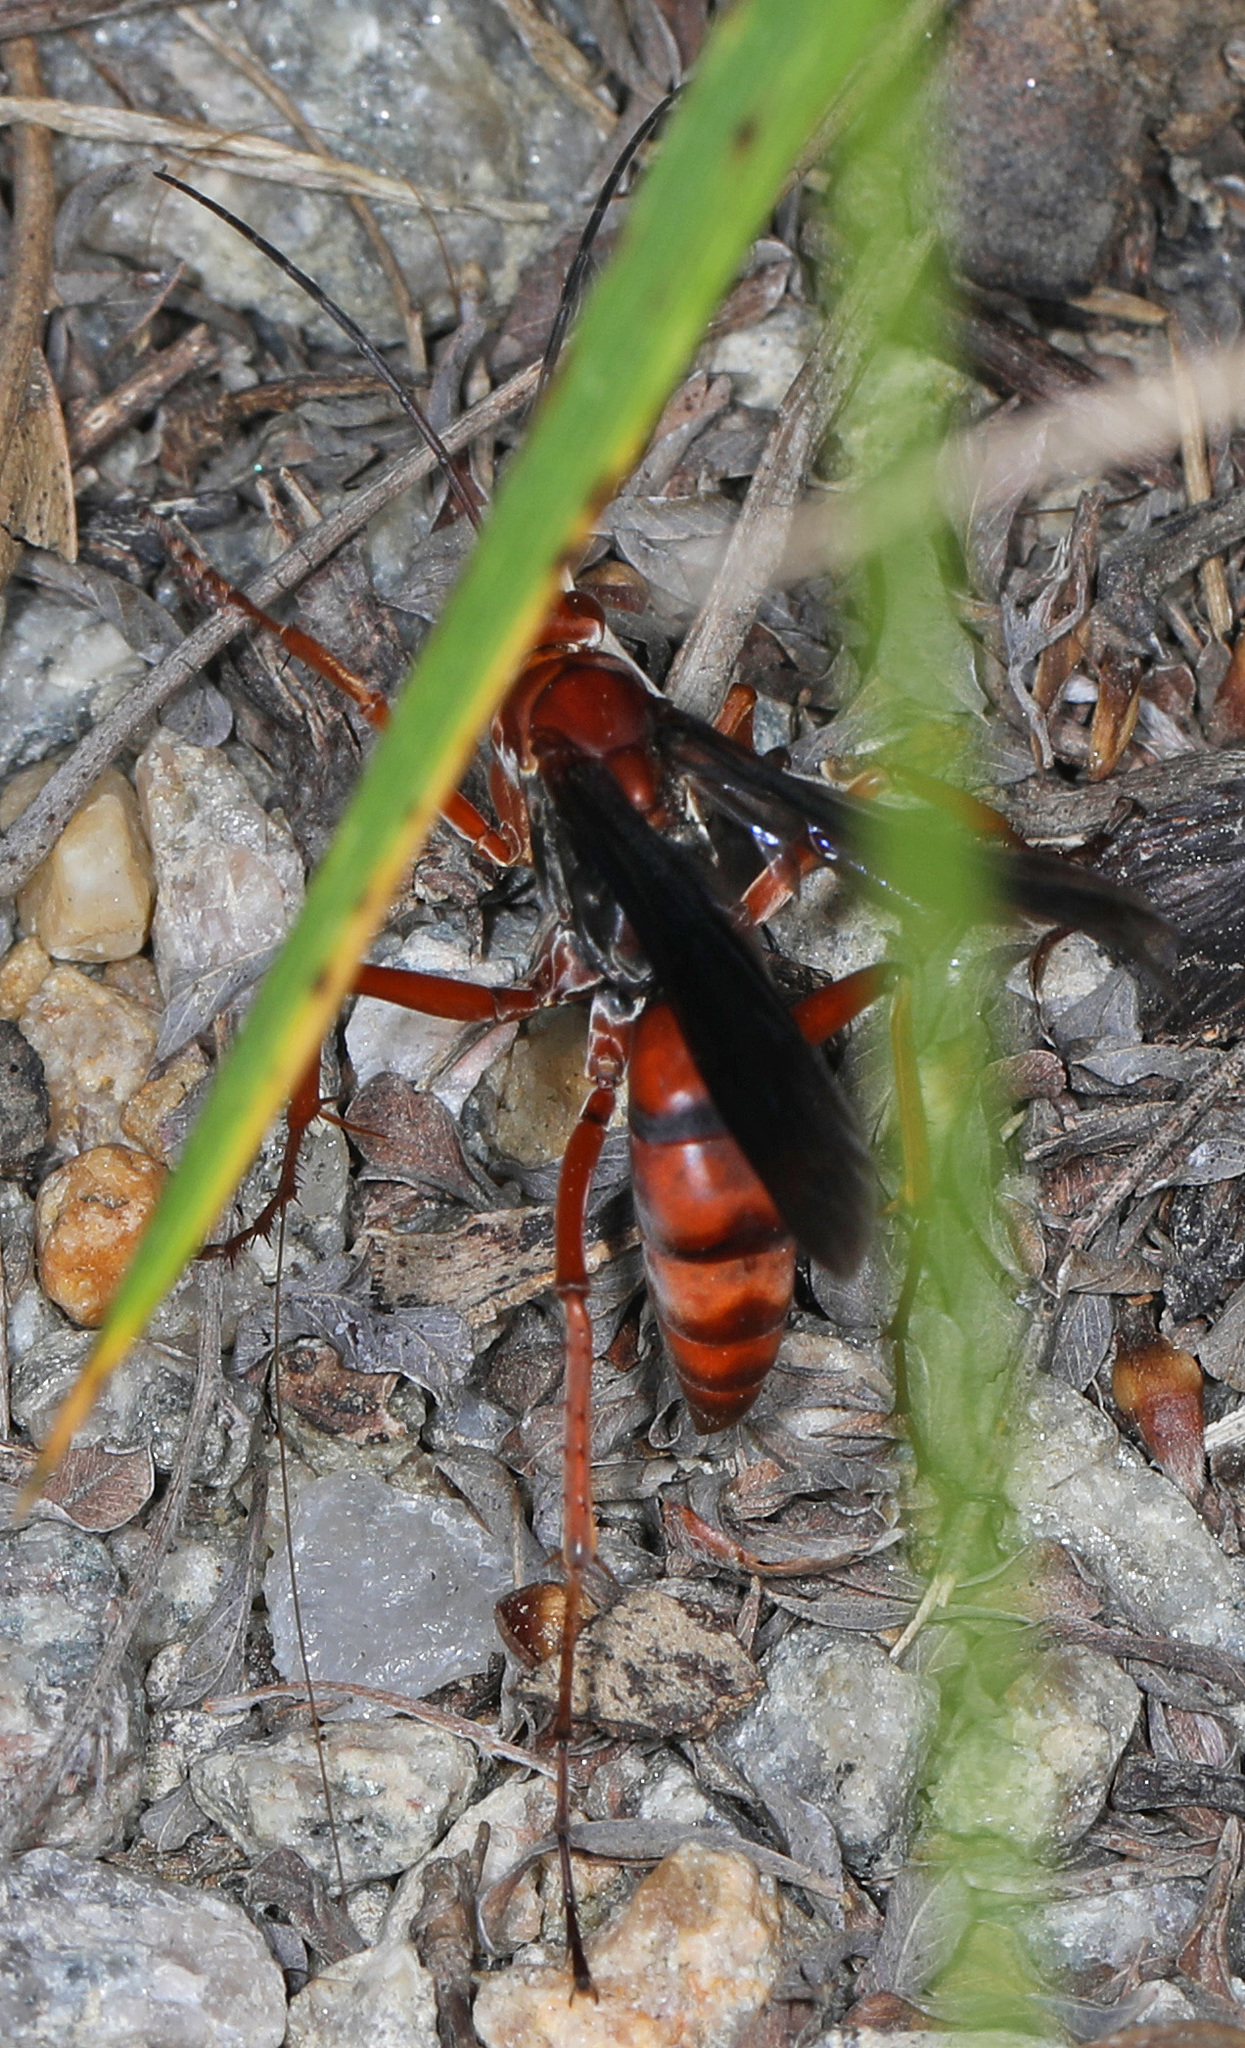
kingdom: Animalia
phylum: Arthropoda
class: Insecta
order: Hymenoptera
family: Pompilidae
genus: Tachypompilus
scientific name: Tachypompilus ferrugineus
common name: Rusty spider wasp
